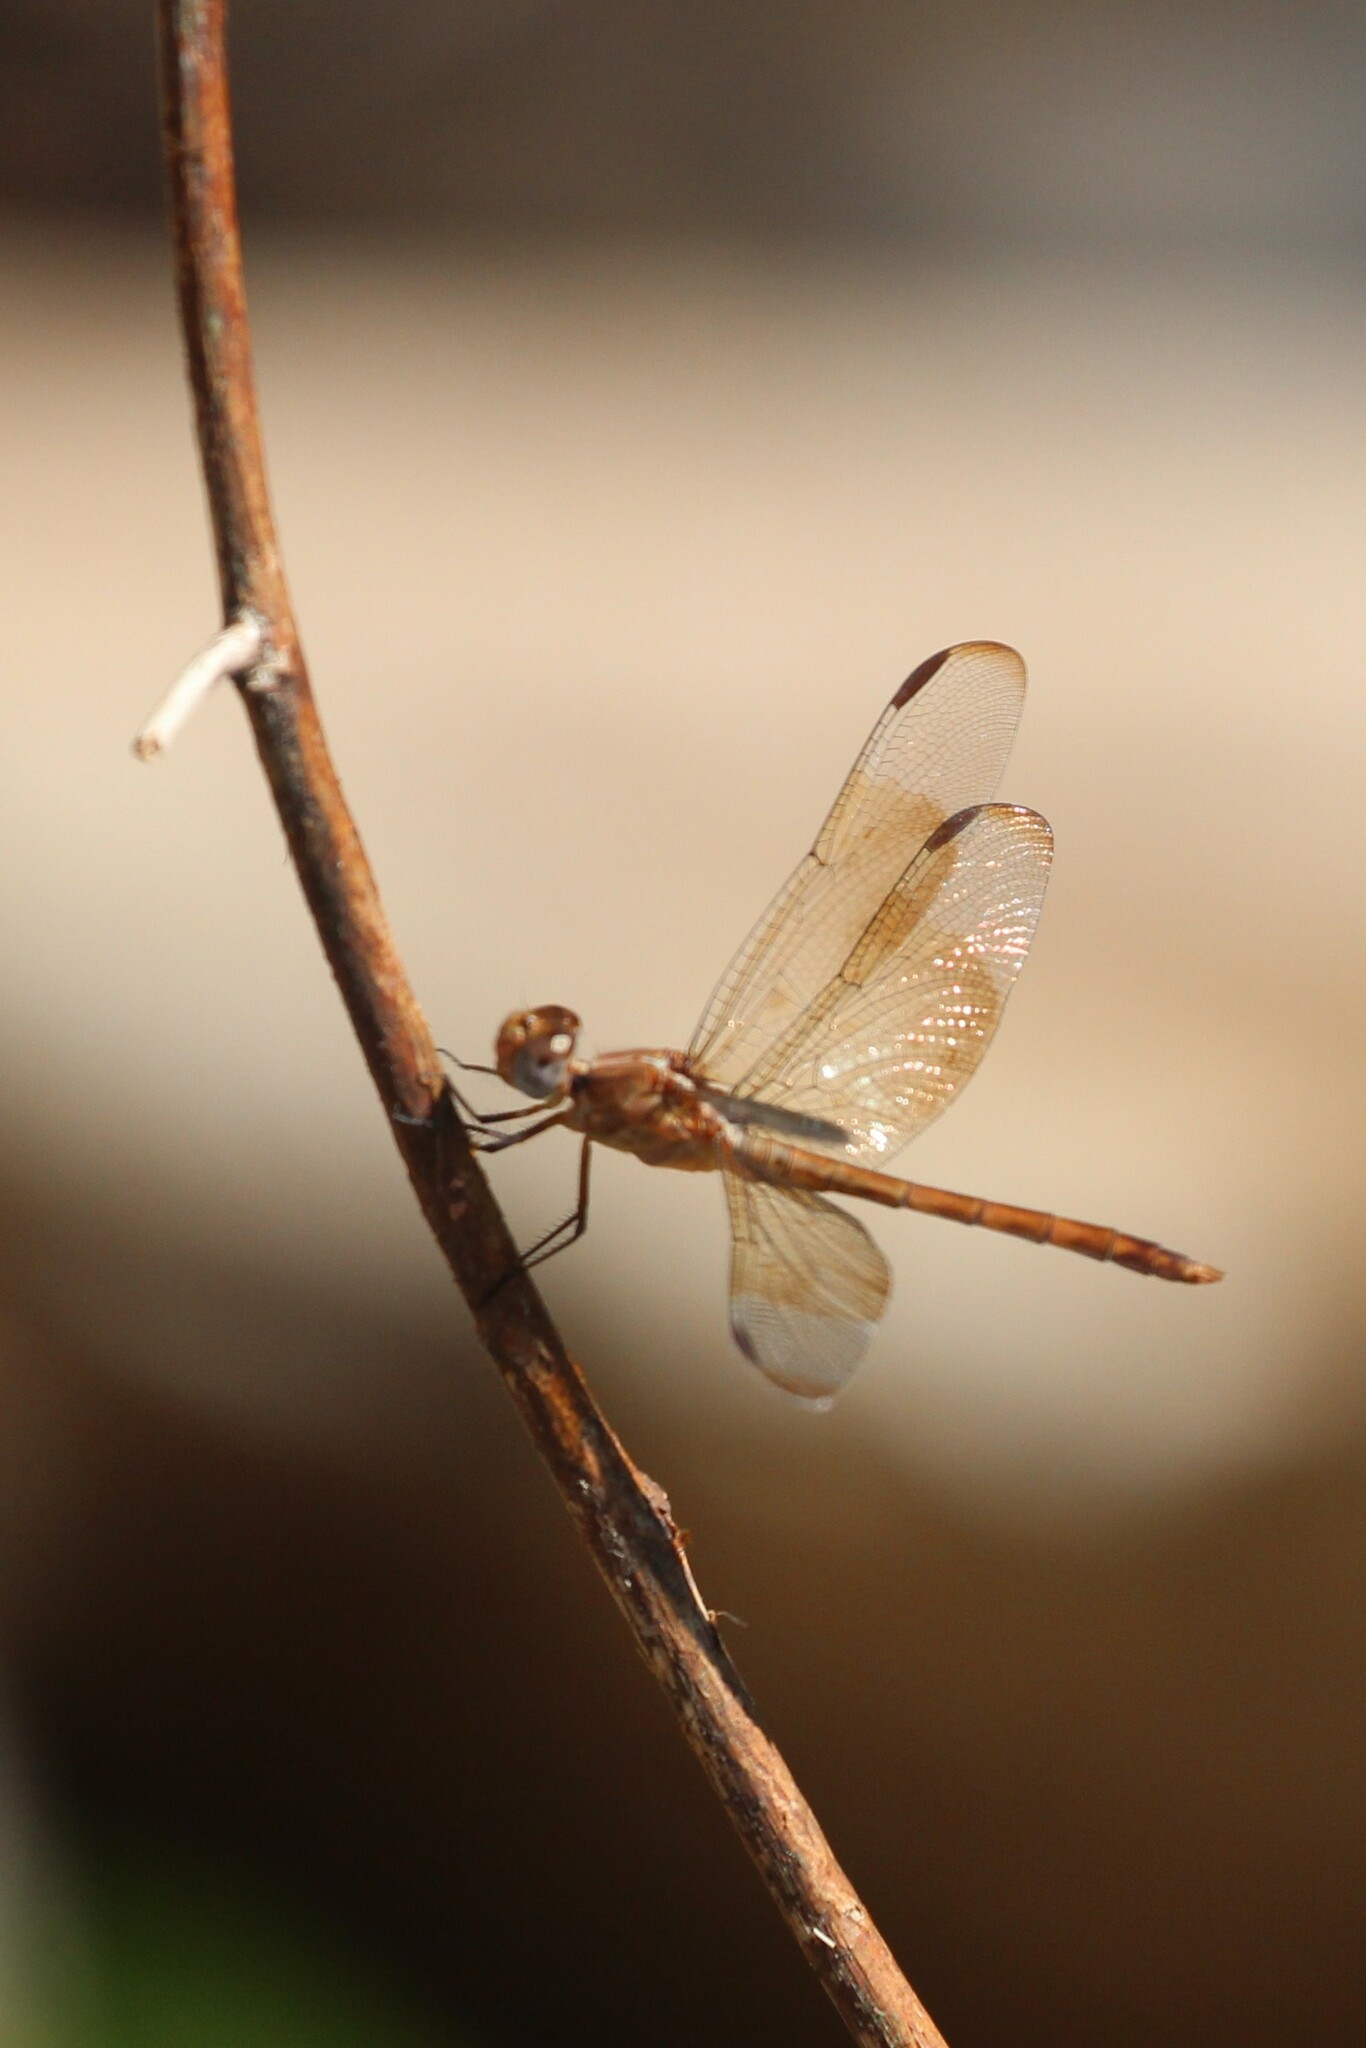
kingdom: Animalia
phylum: Arthropoda
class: Insecta
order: Odonata
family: Libellulidae
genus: Erythrodiplax
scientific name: Erythrodiplax funerea
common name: Black-winged dragonlet
